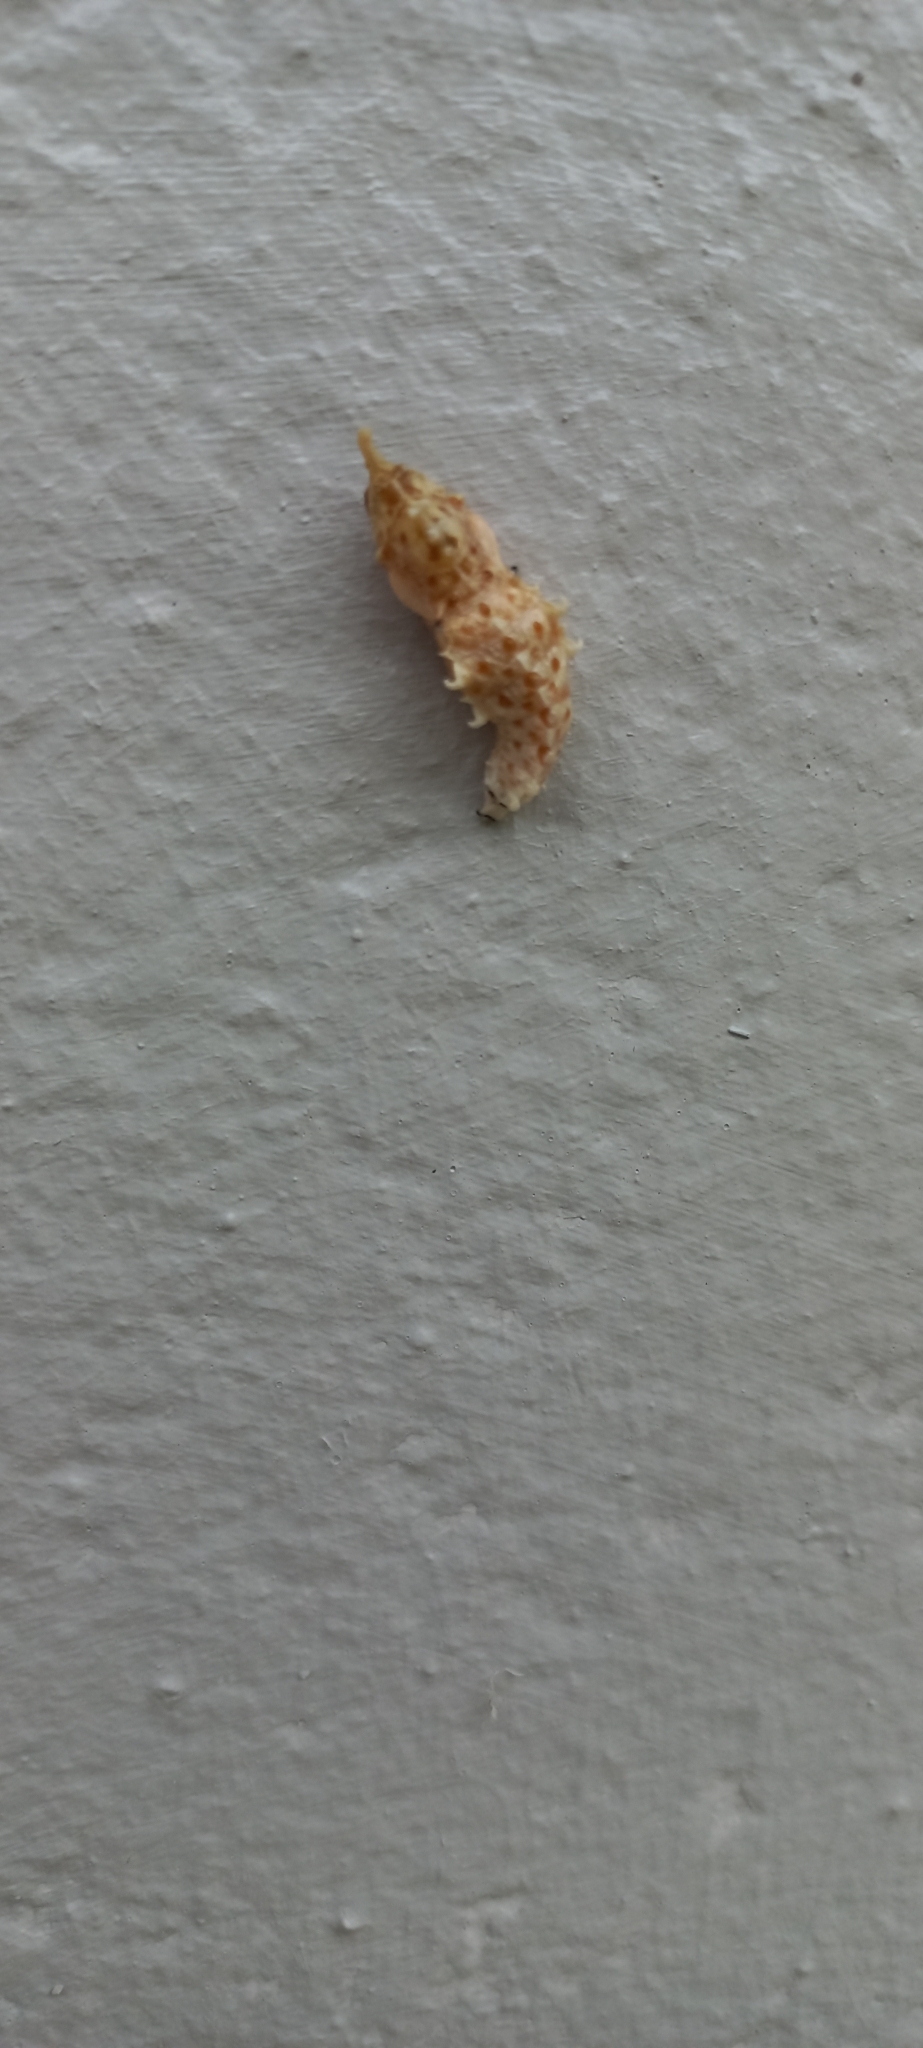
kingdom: Animalia
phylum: Arthropoda
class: Insecta
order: Lepidoptera
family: Pieridae
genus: Mylothris
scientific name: Mylothris agathina
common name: Eastern dotted border
